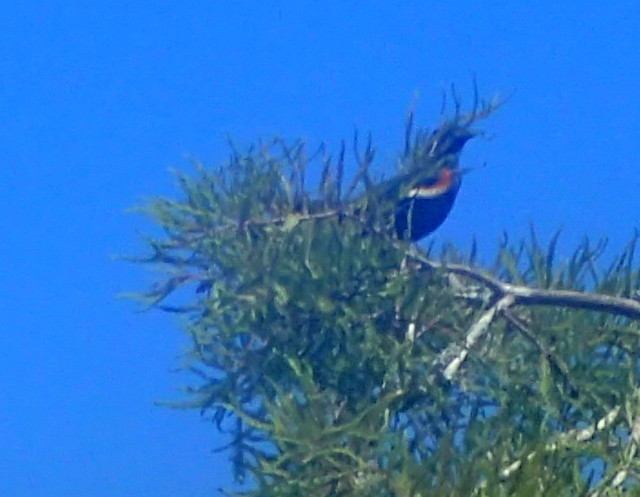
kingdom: Animalia
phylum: Chordata
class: Aves
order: Passeriformes
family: Icteridae
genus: Agelaius
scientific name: Agelaius phoeniceus
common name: Red-winged blackbird
